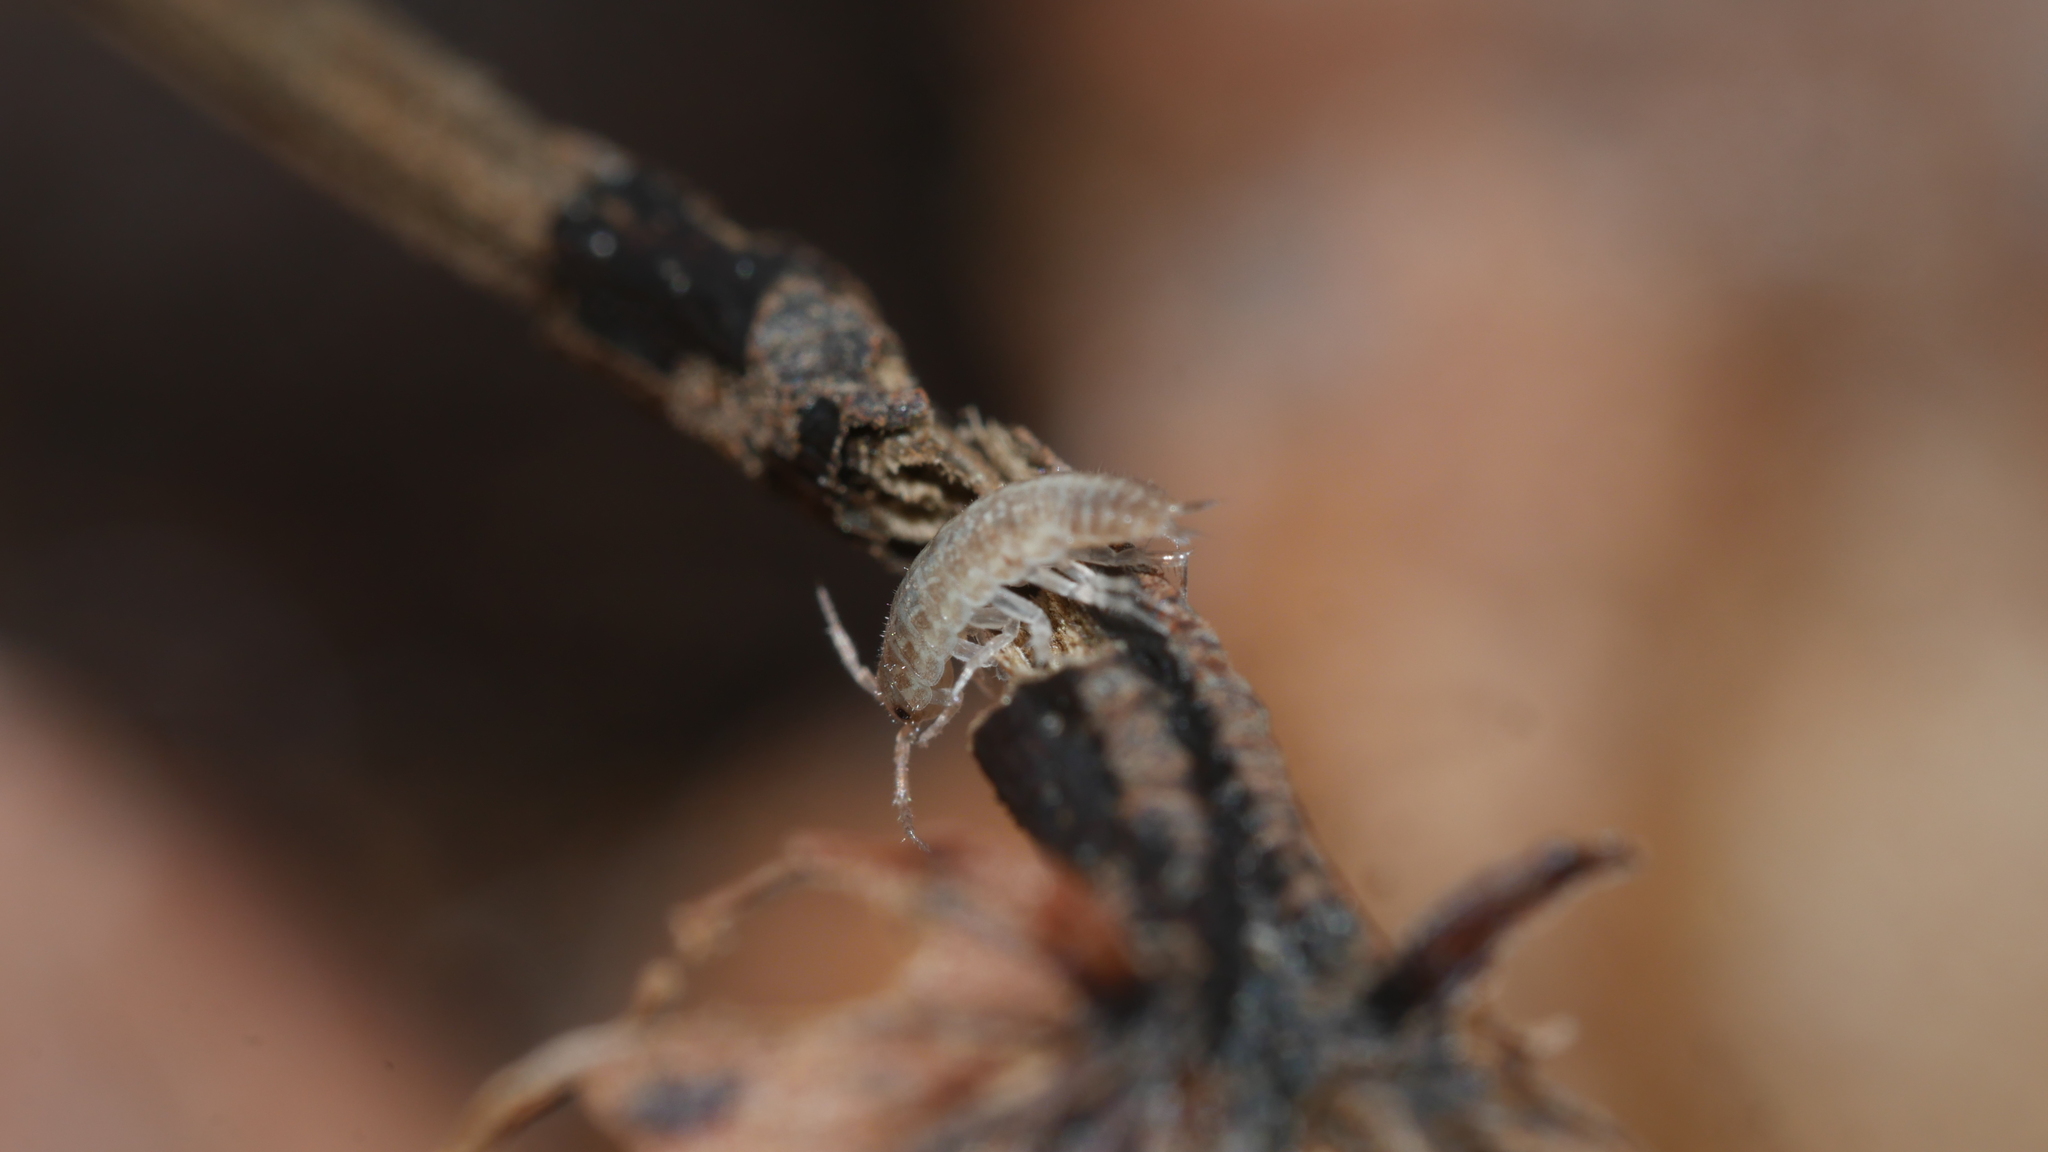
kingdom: Animalia
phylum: Arthropoda
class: Malacostraca
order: Isopoda
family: Philosciidae
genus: Chaetophiloscia
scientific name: Chaetophiloscia sicula
